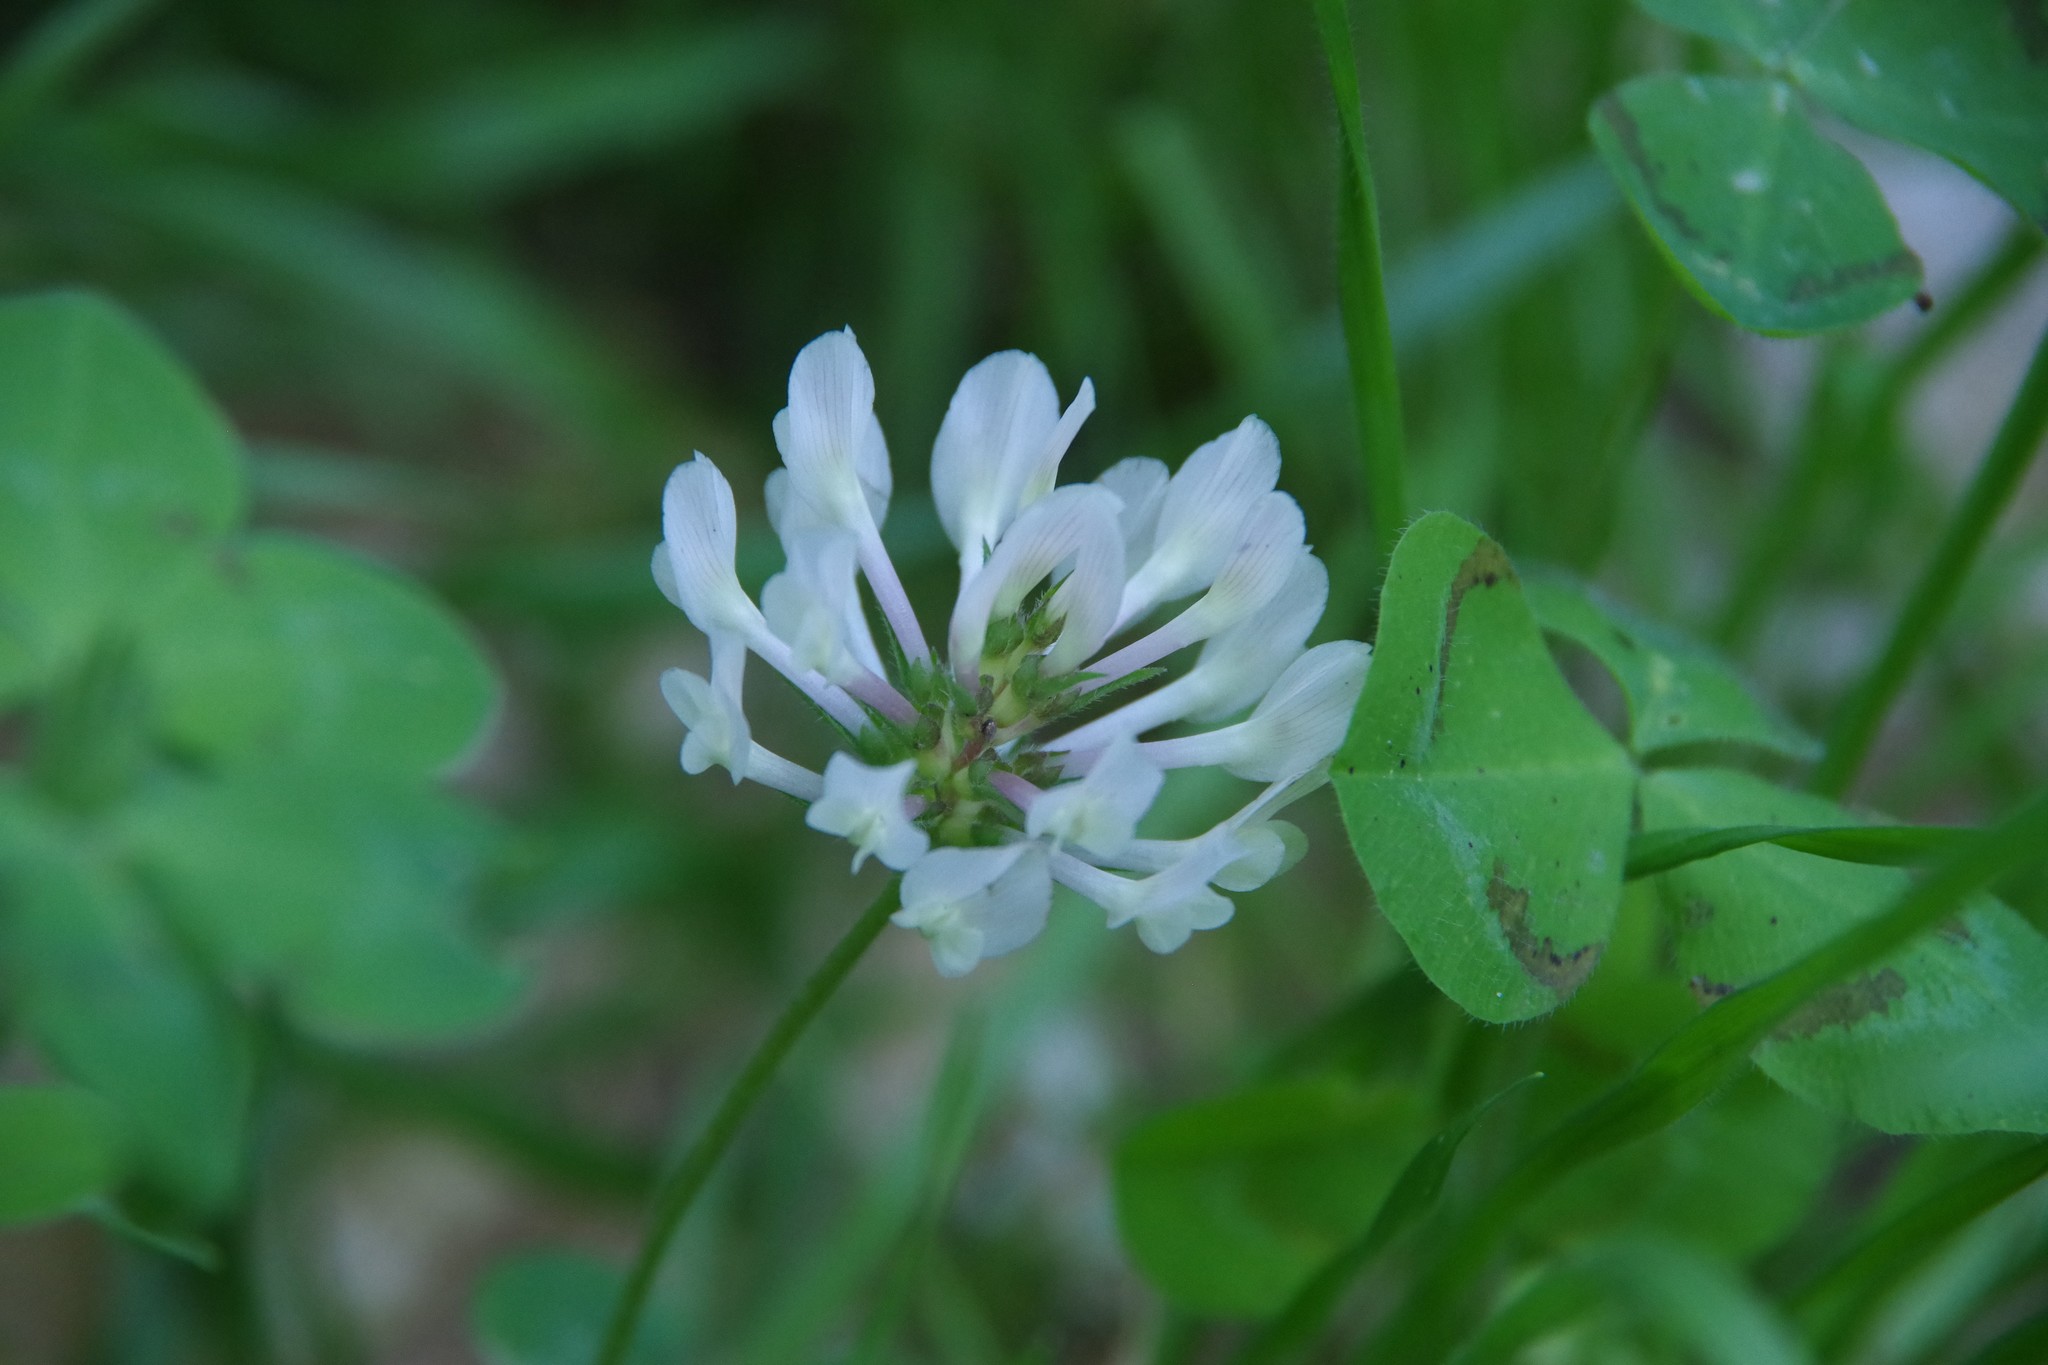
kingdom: Plantae
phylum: Tracheophyta
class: Magnoliopsida
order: Fabales
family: Fabaceae
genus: Trifolium
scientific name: Trifolium clypeatum
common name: Shield clover
